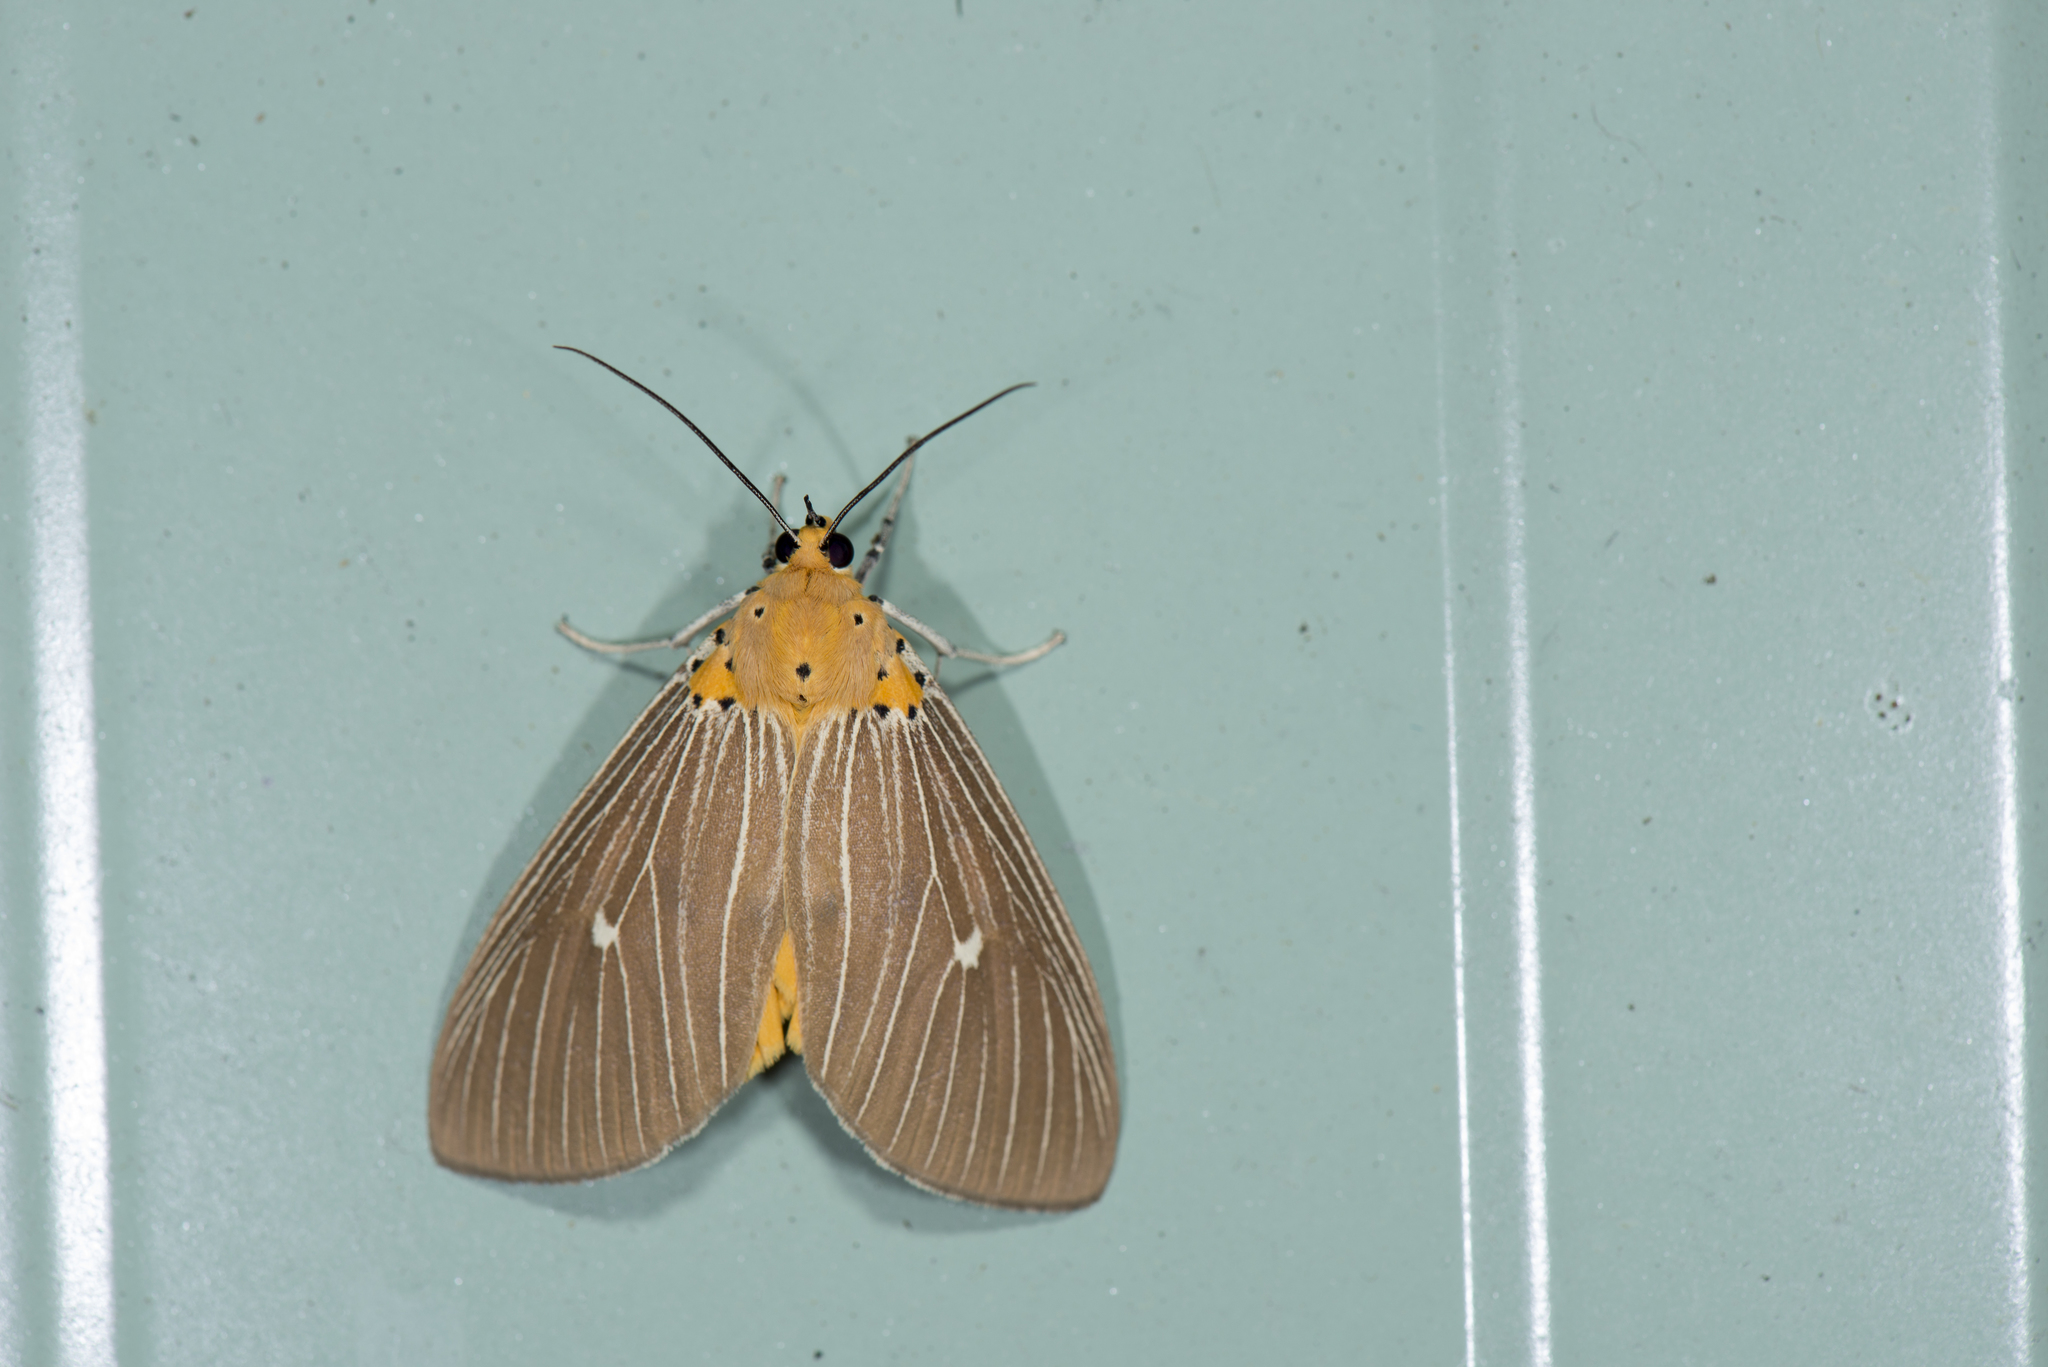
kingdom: Animalia
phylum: Arthropoda
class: Insecta
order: Lepidoptera
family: Erebidae
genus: Asota
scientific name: Asota caricae
